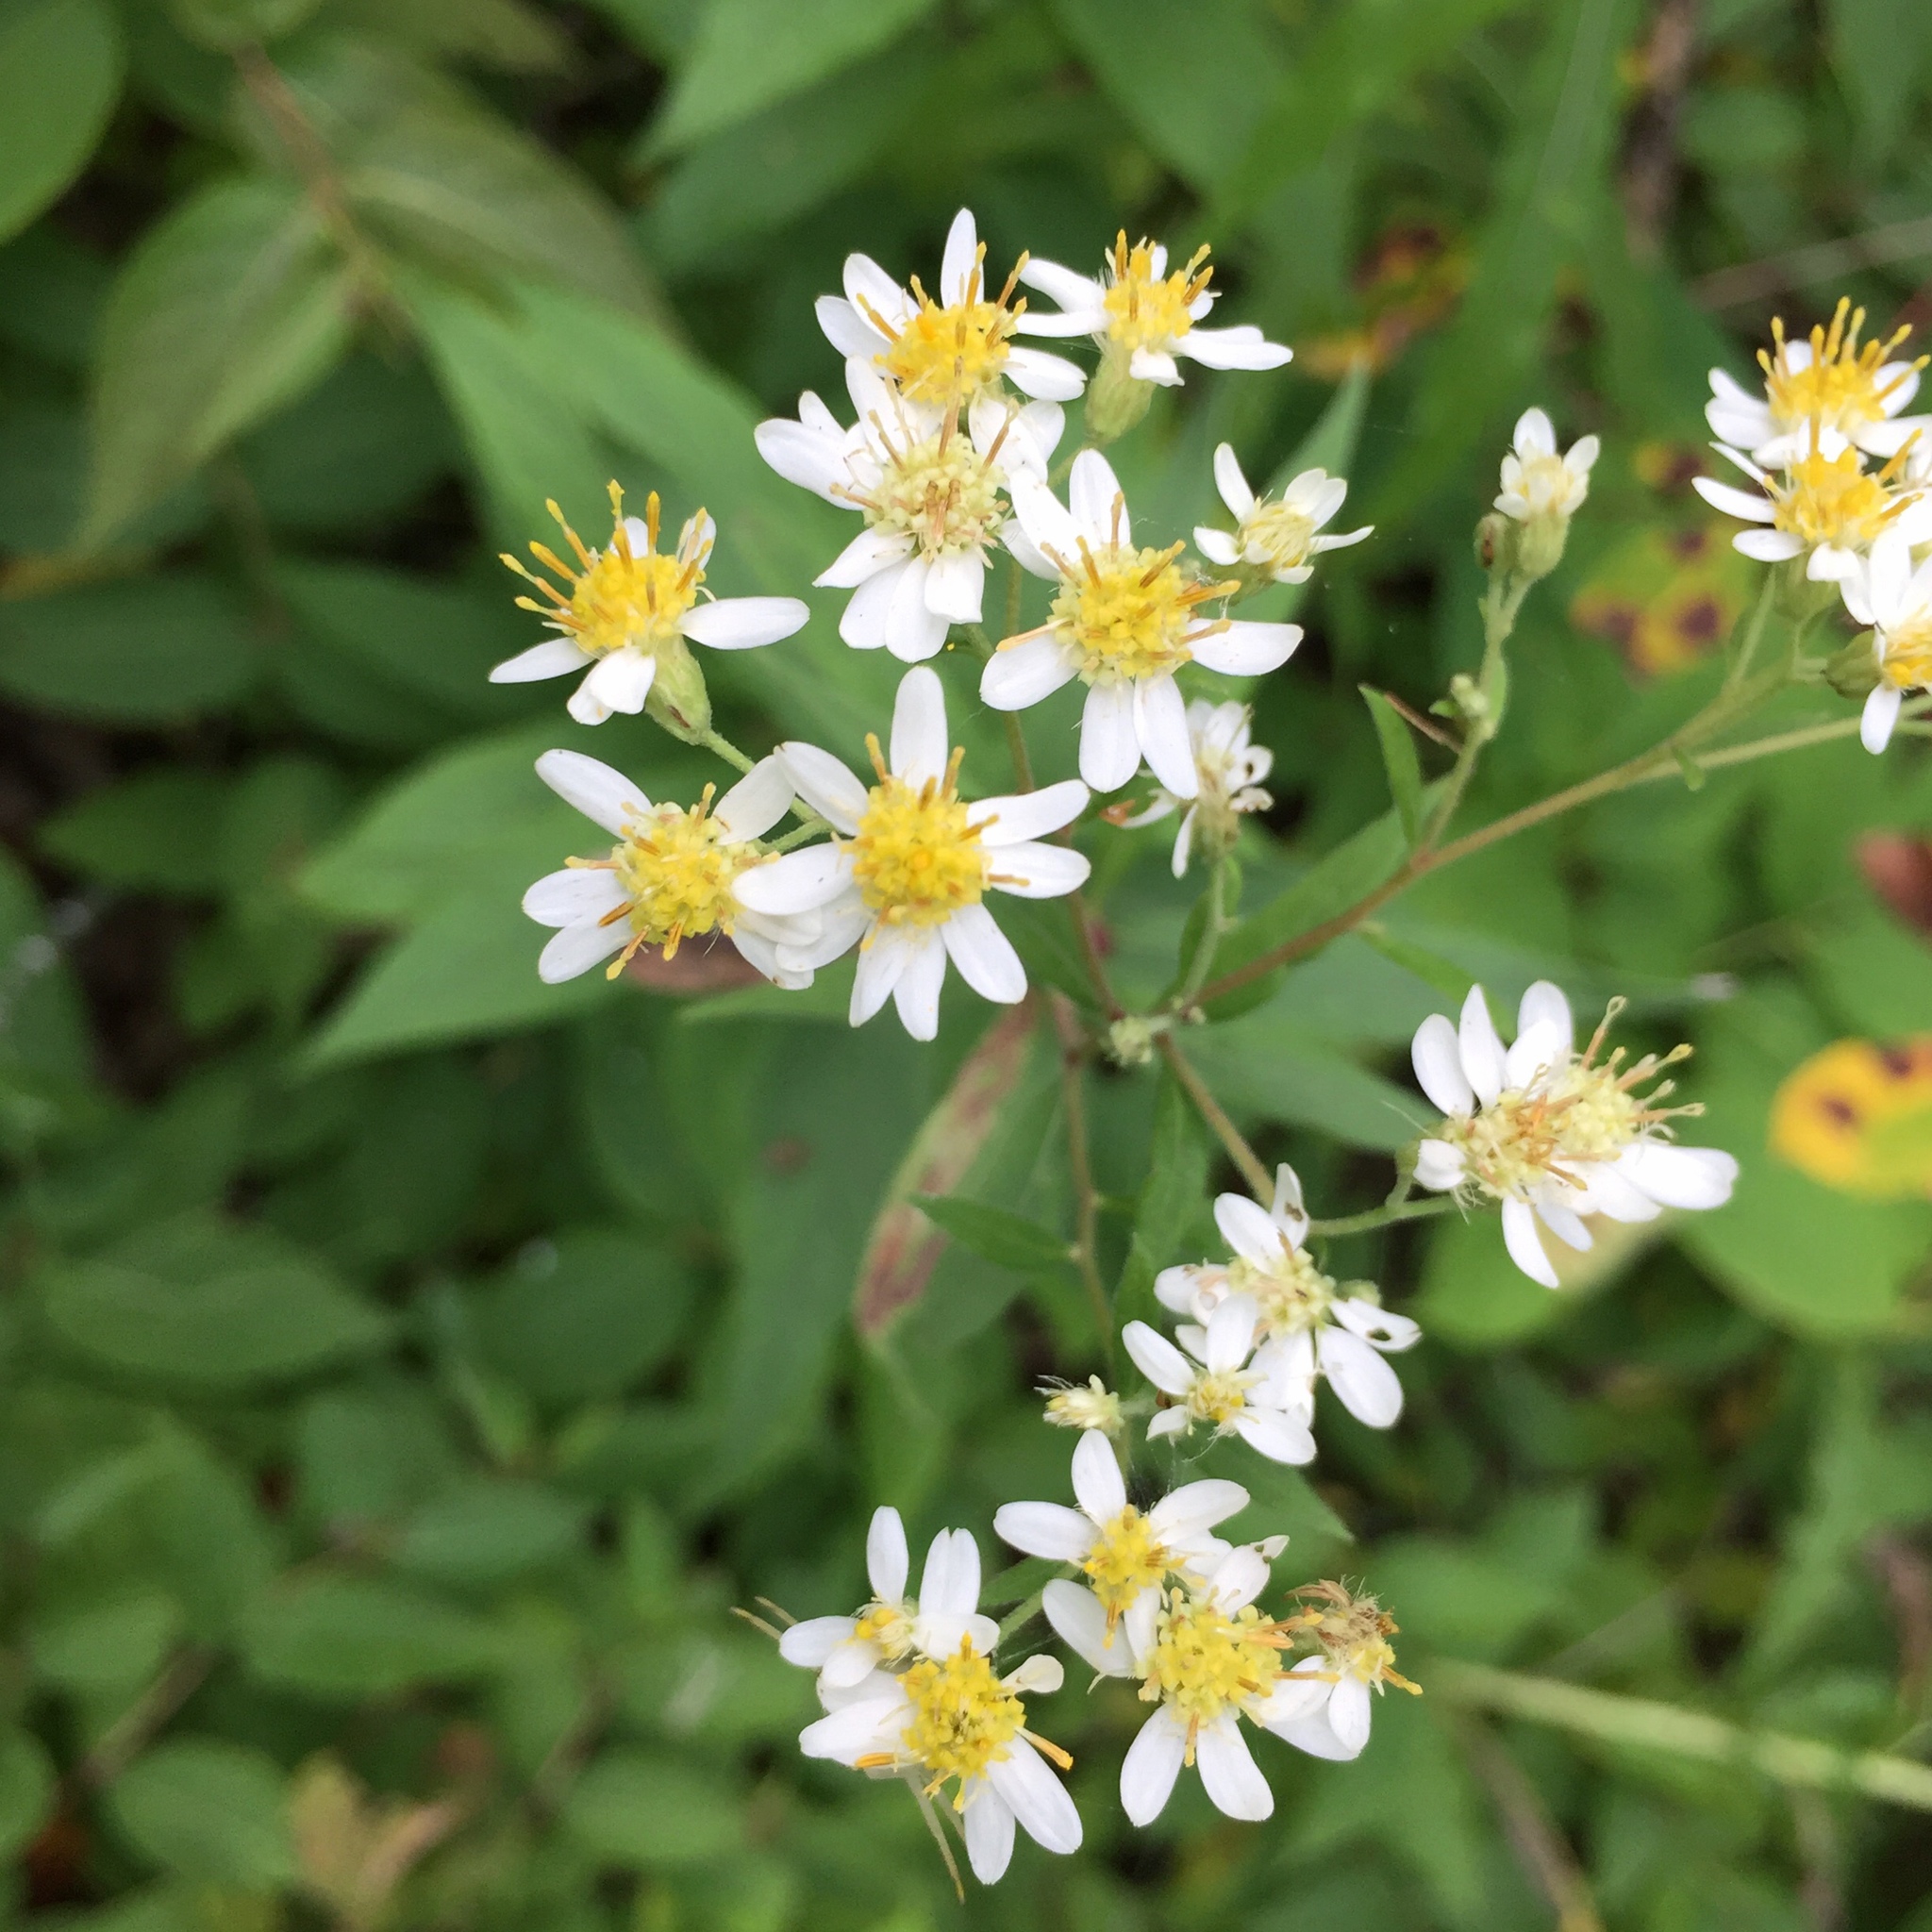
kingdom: Plantae
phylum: Tracheophyta
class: Magnoliopsida
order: Asterales
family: Asteraceae
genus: Doellingeria
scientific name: Doellingeria umbellata
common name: Flat-top white aster
